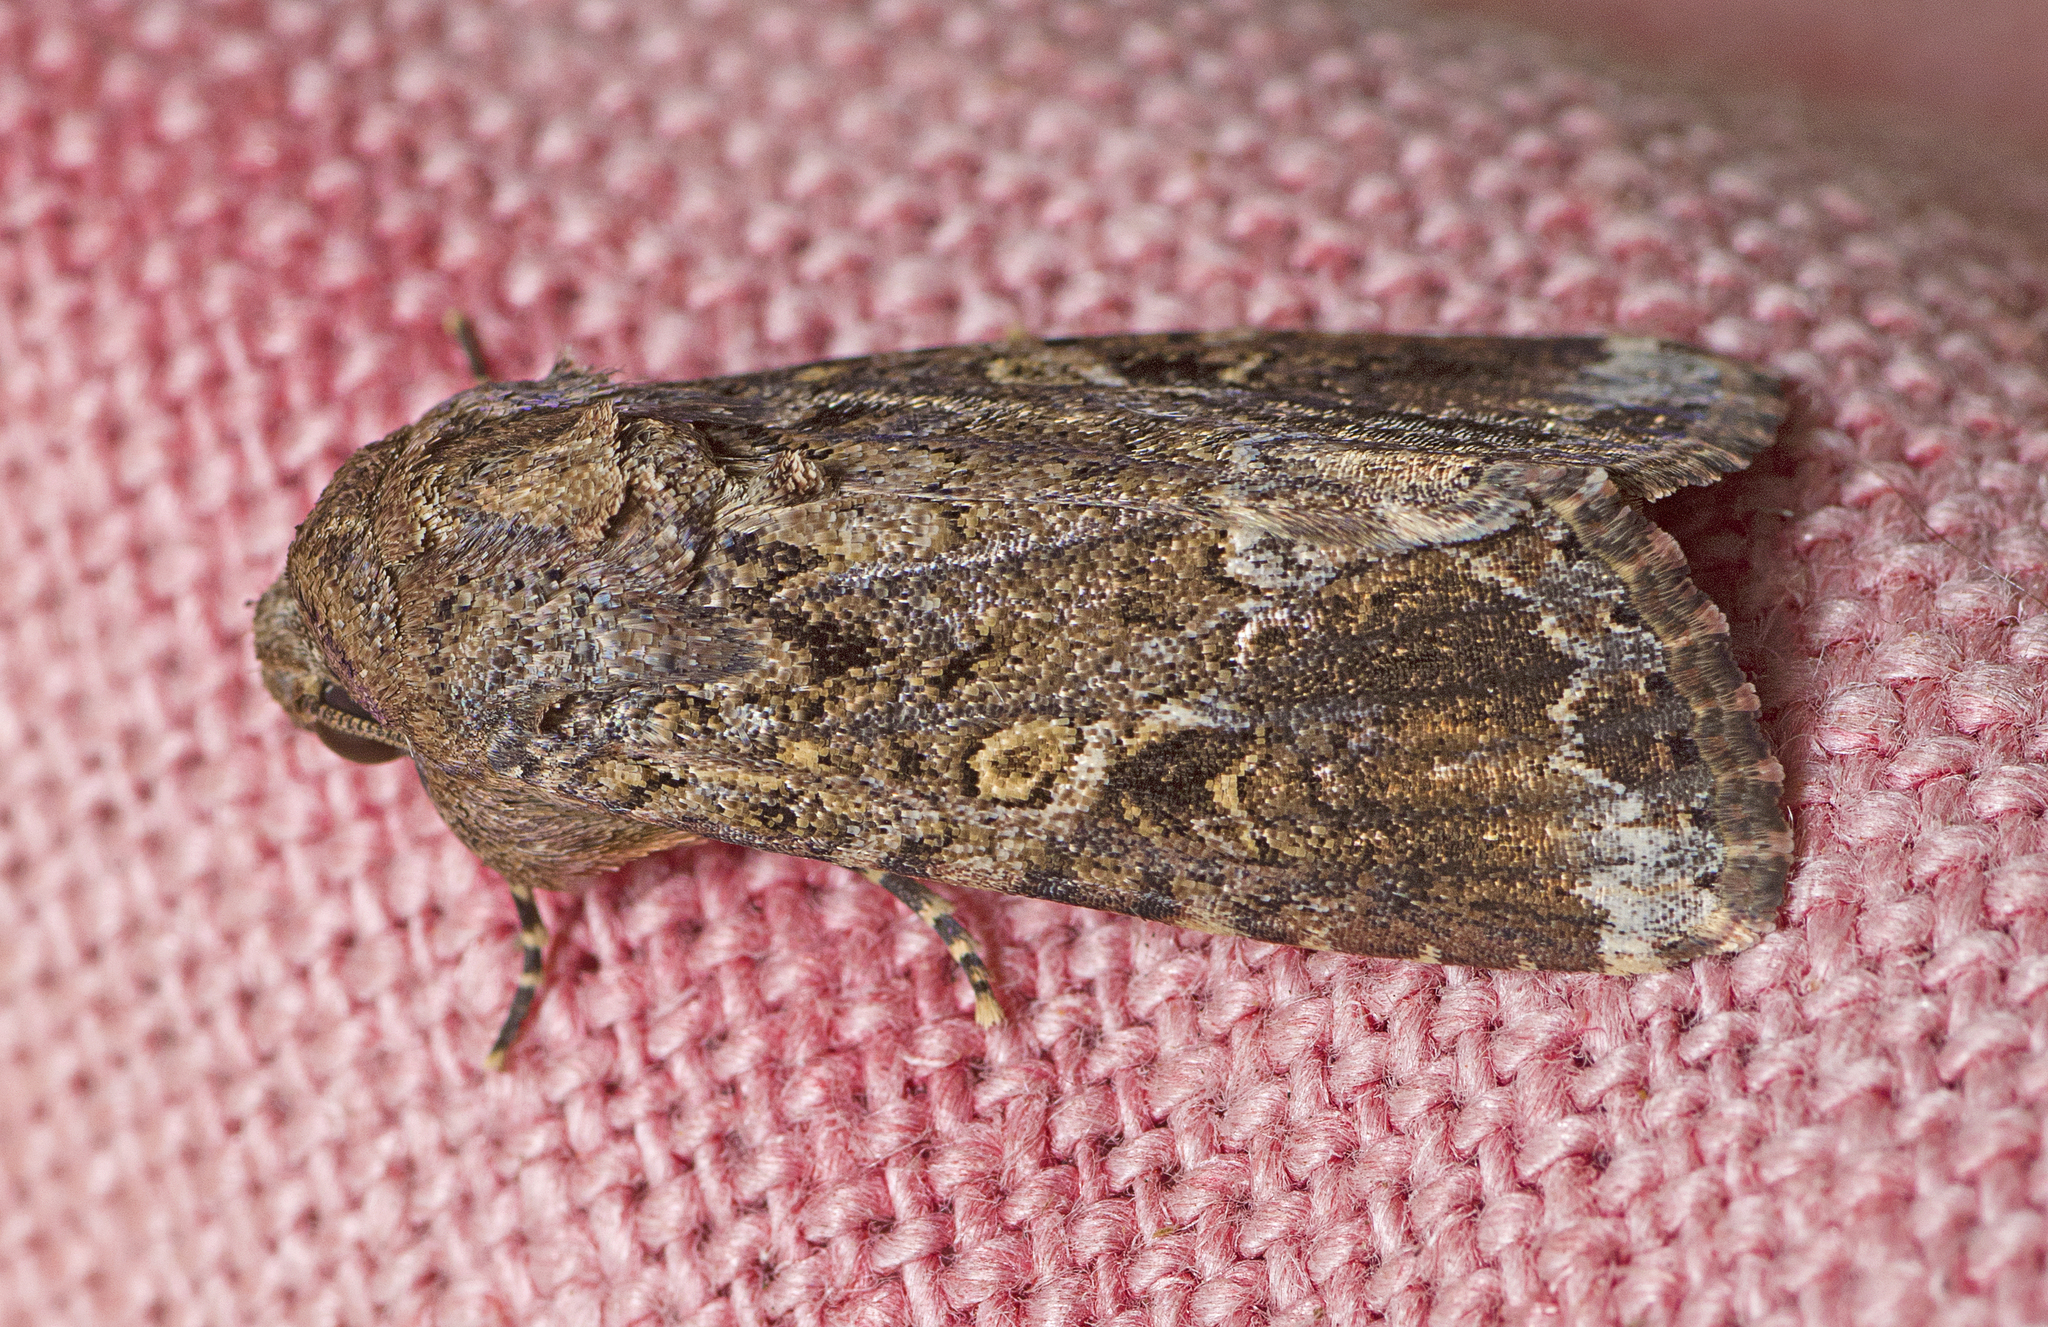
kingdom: Animalia
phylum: Arthropoda
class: Insecta
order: Lepidoptera
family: Noctuidae
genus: Spodoptera
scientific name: Spodoptera mauritia
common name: Lawn armyworm
